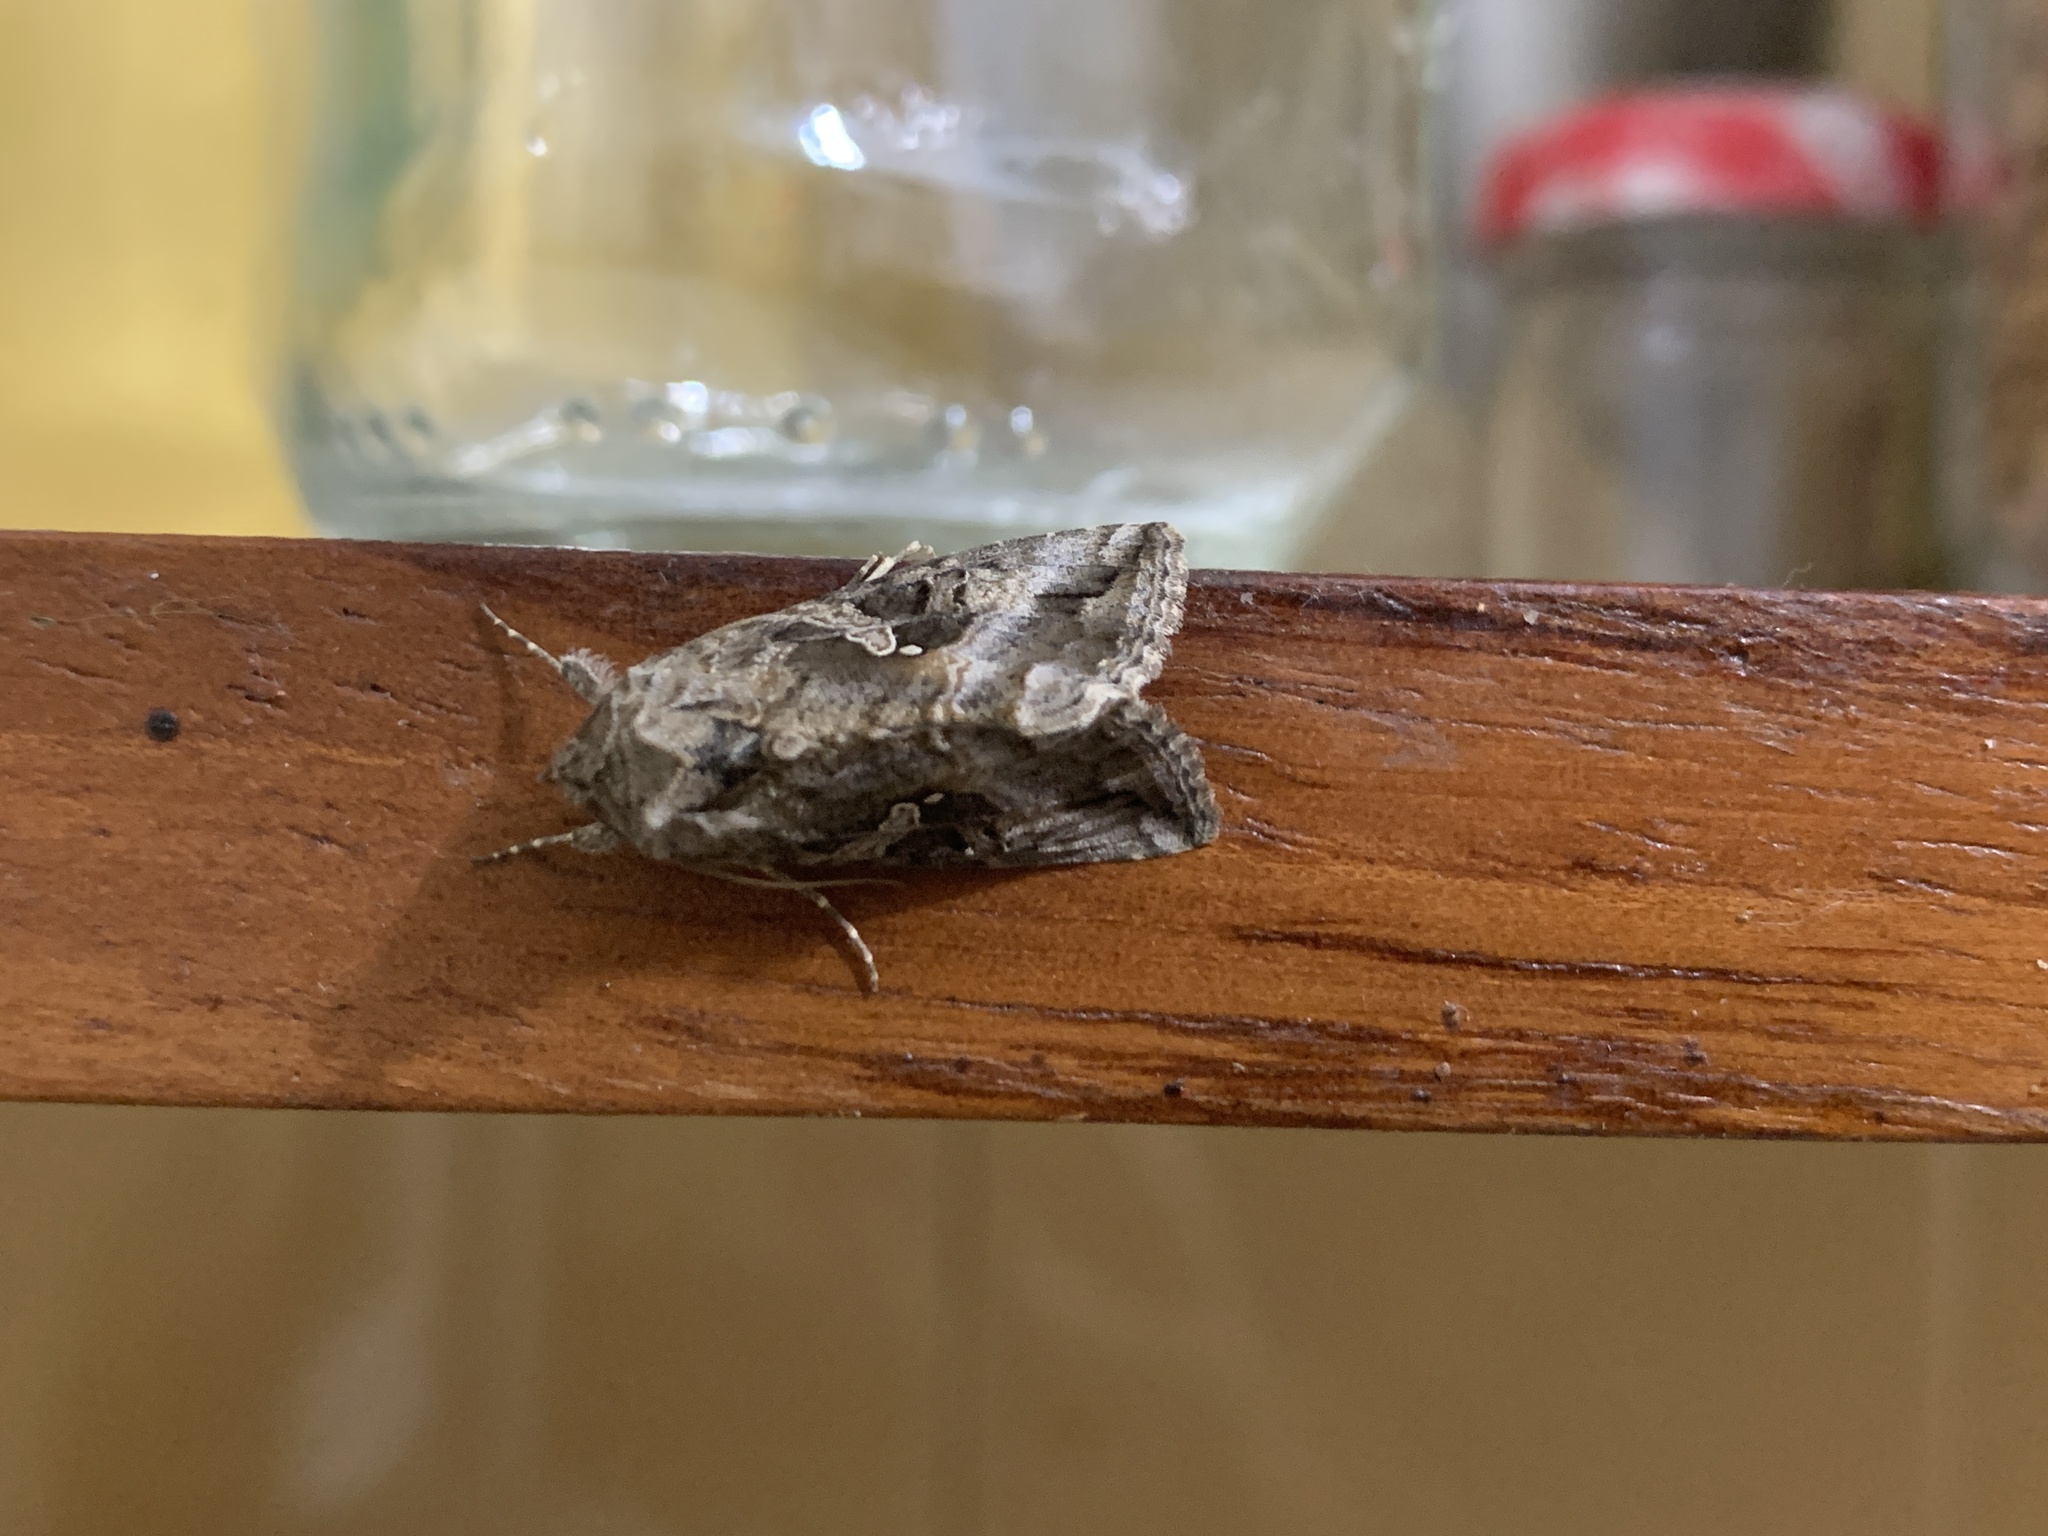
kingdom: Animalia
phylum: Arthropoda
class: Insecta
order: Lepidoptera
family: Noctuidae
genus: Rachiplusia
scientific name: Rachiplusia nu
